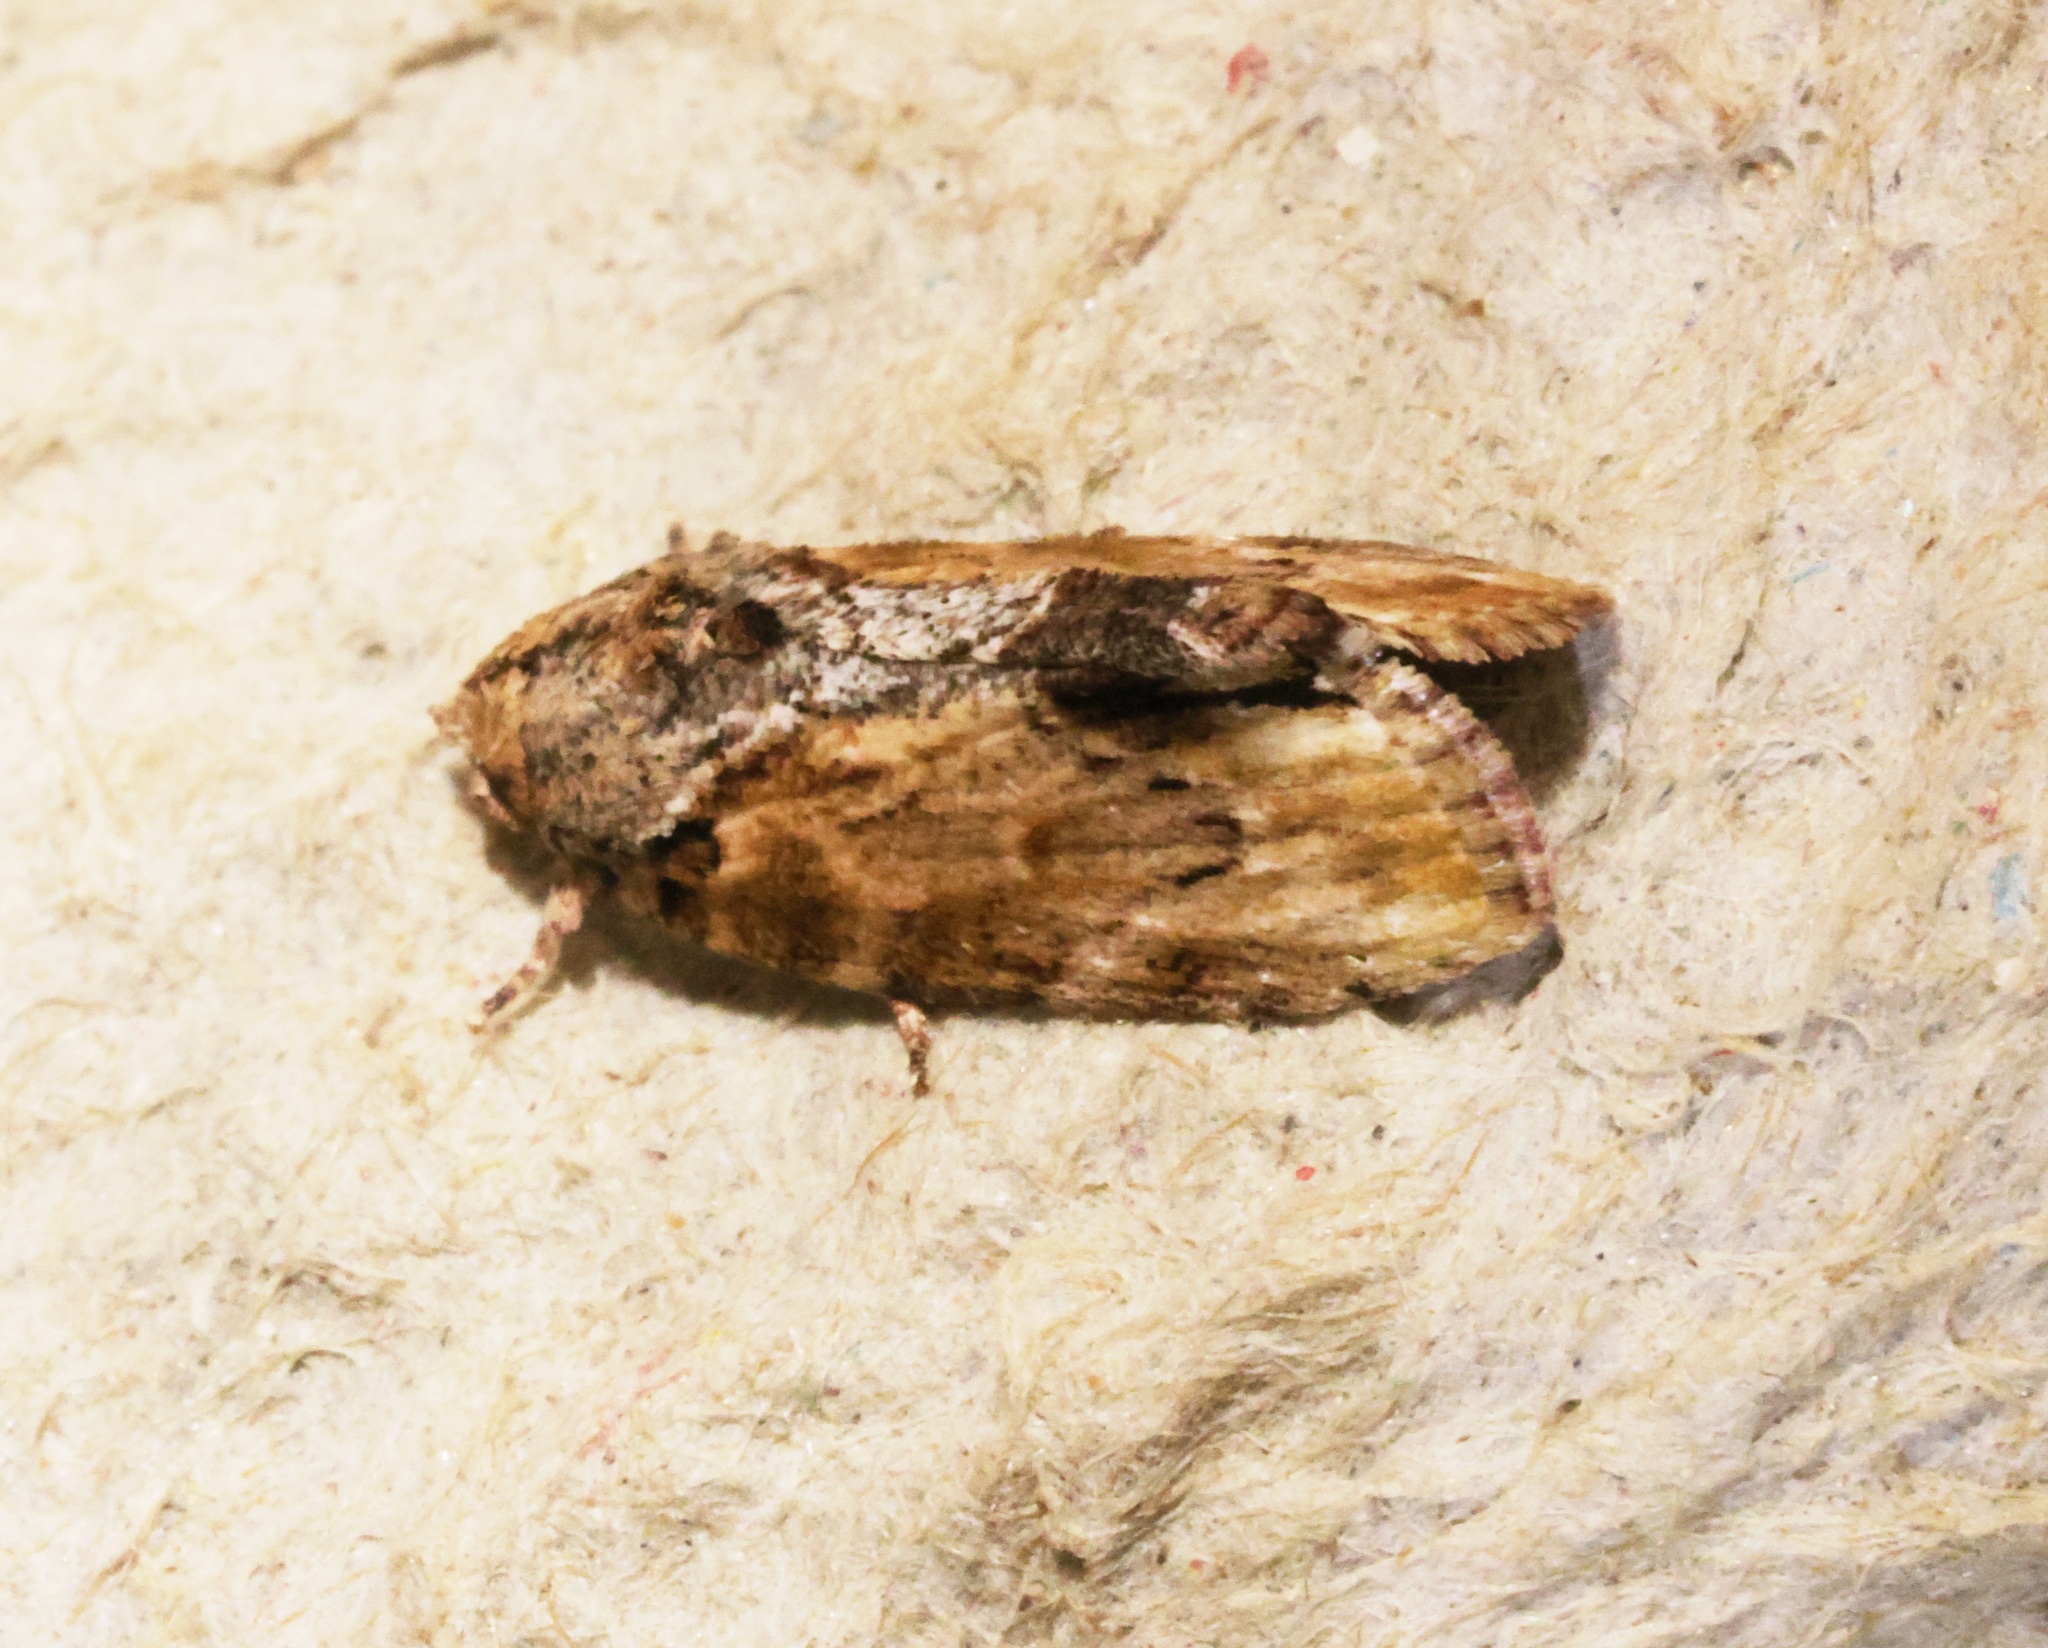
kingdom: Animalia
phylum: Arthropoda
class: Insecta
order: Lepidoptera
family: Nolidae
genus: Etanna
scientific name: Etanna breviuscula
